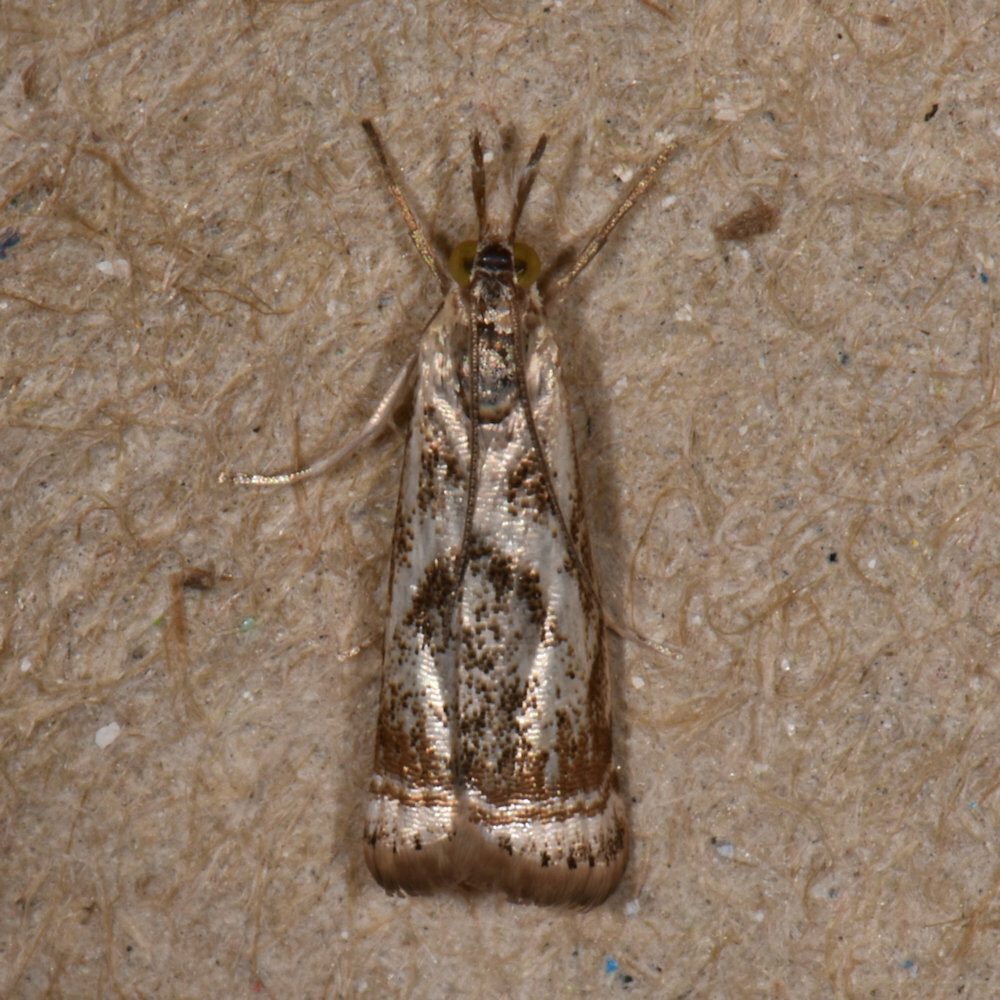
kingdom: Animalia
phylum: Arthropoda
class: Insecta
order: Lepidoptera
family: Crambidae
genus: Microcrambus
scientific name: Microcrambus elegans
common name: Elegant grass-veneer
